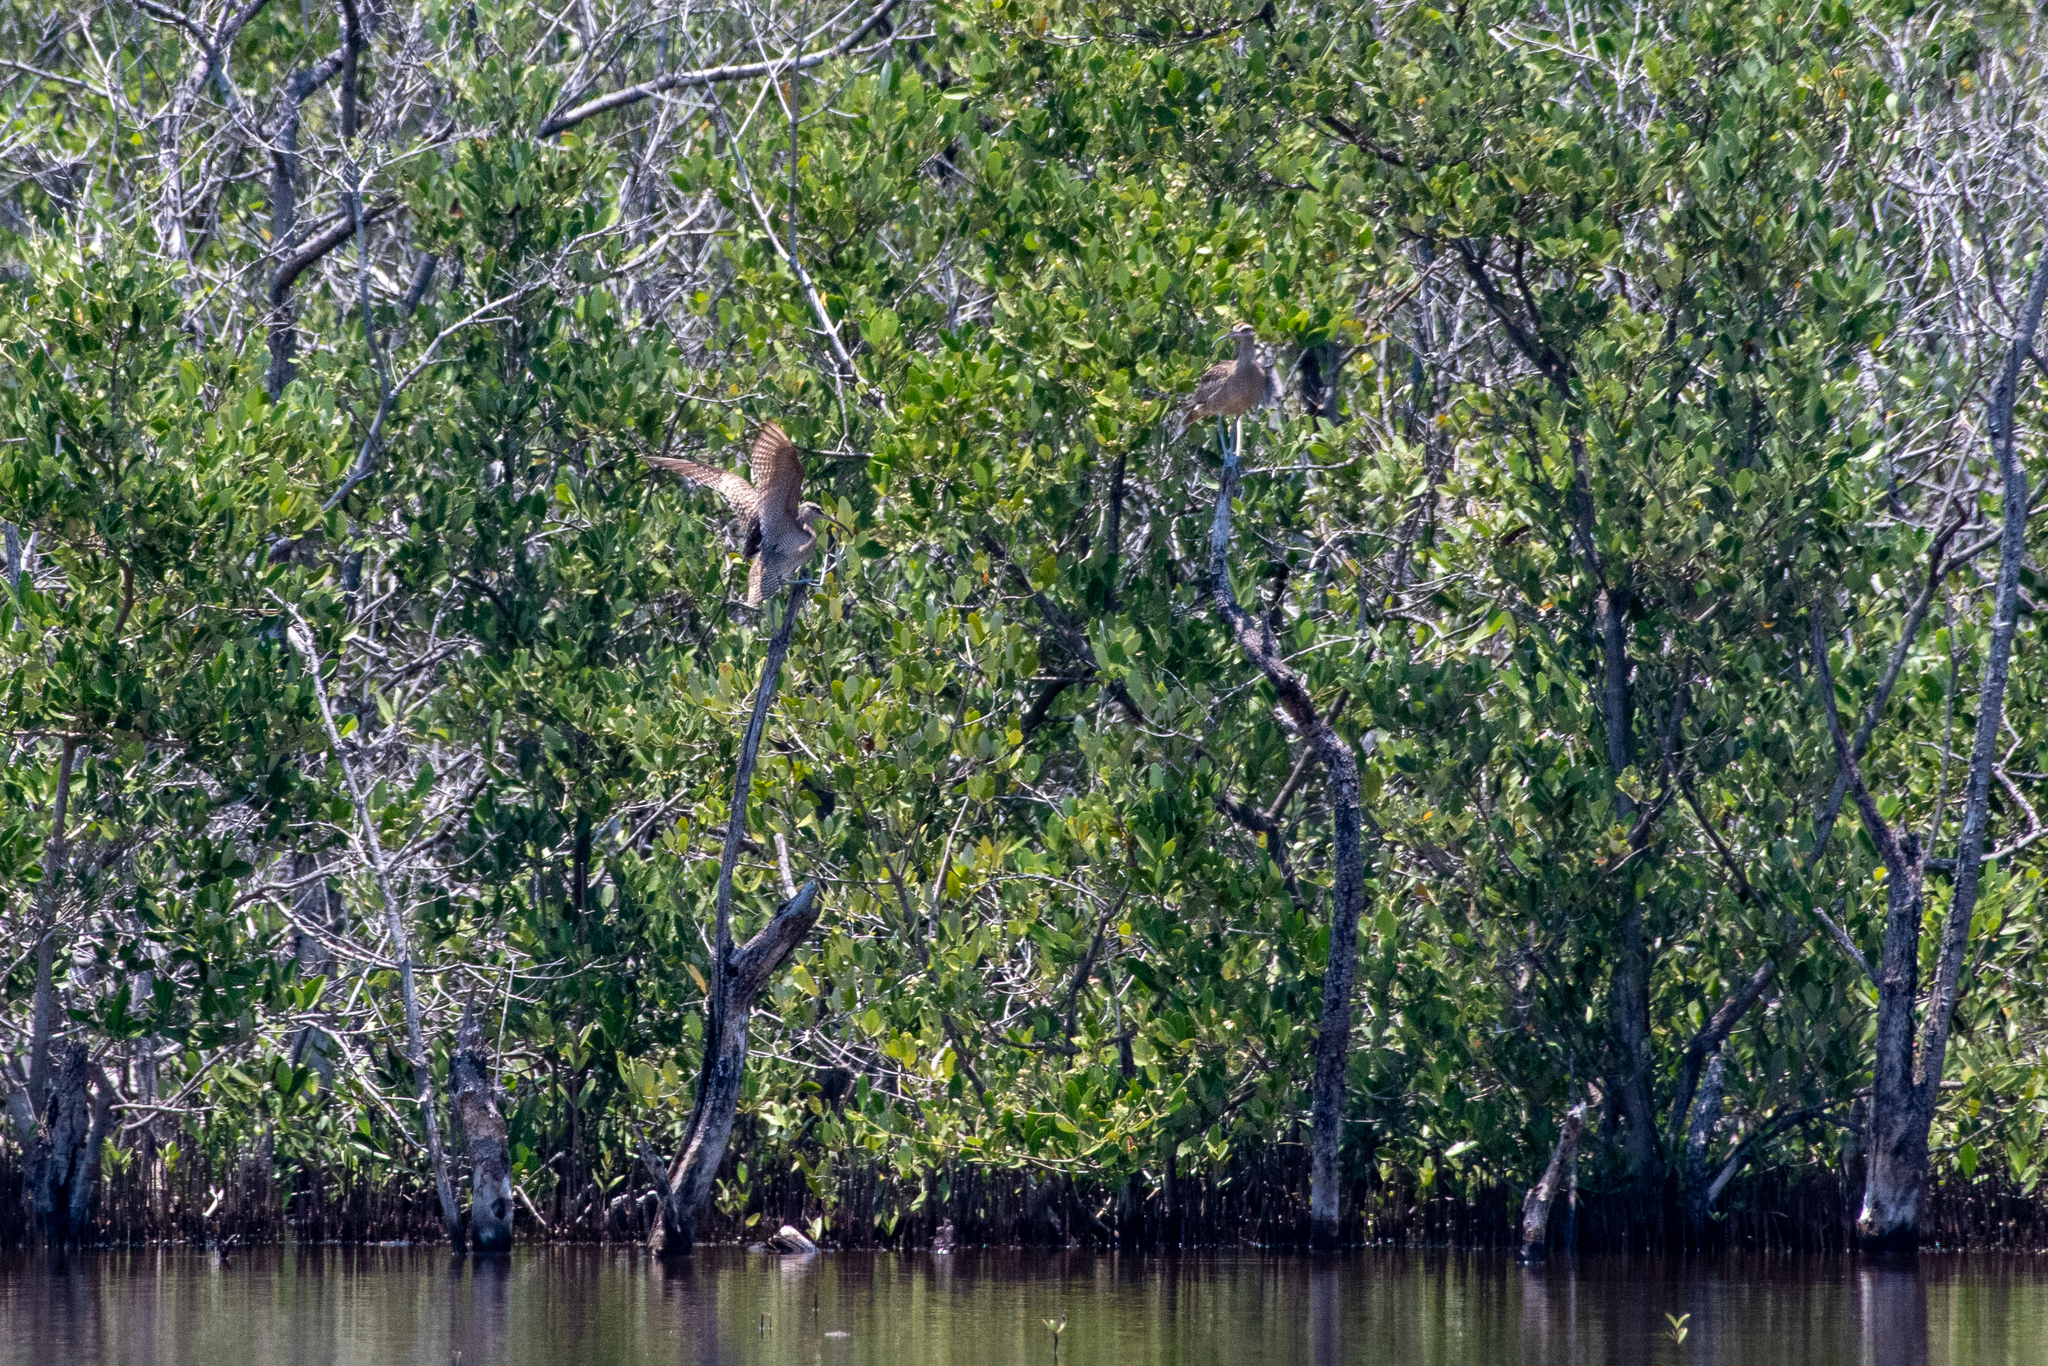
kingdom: Animalia
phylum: Chordata
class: Aves
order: Charadriiformes
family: Scolopacidae
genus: Numenius
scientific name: Numenius phaeopus
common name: Whimbrel
